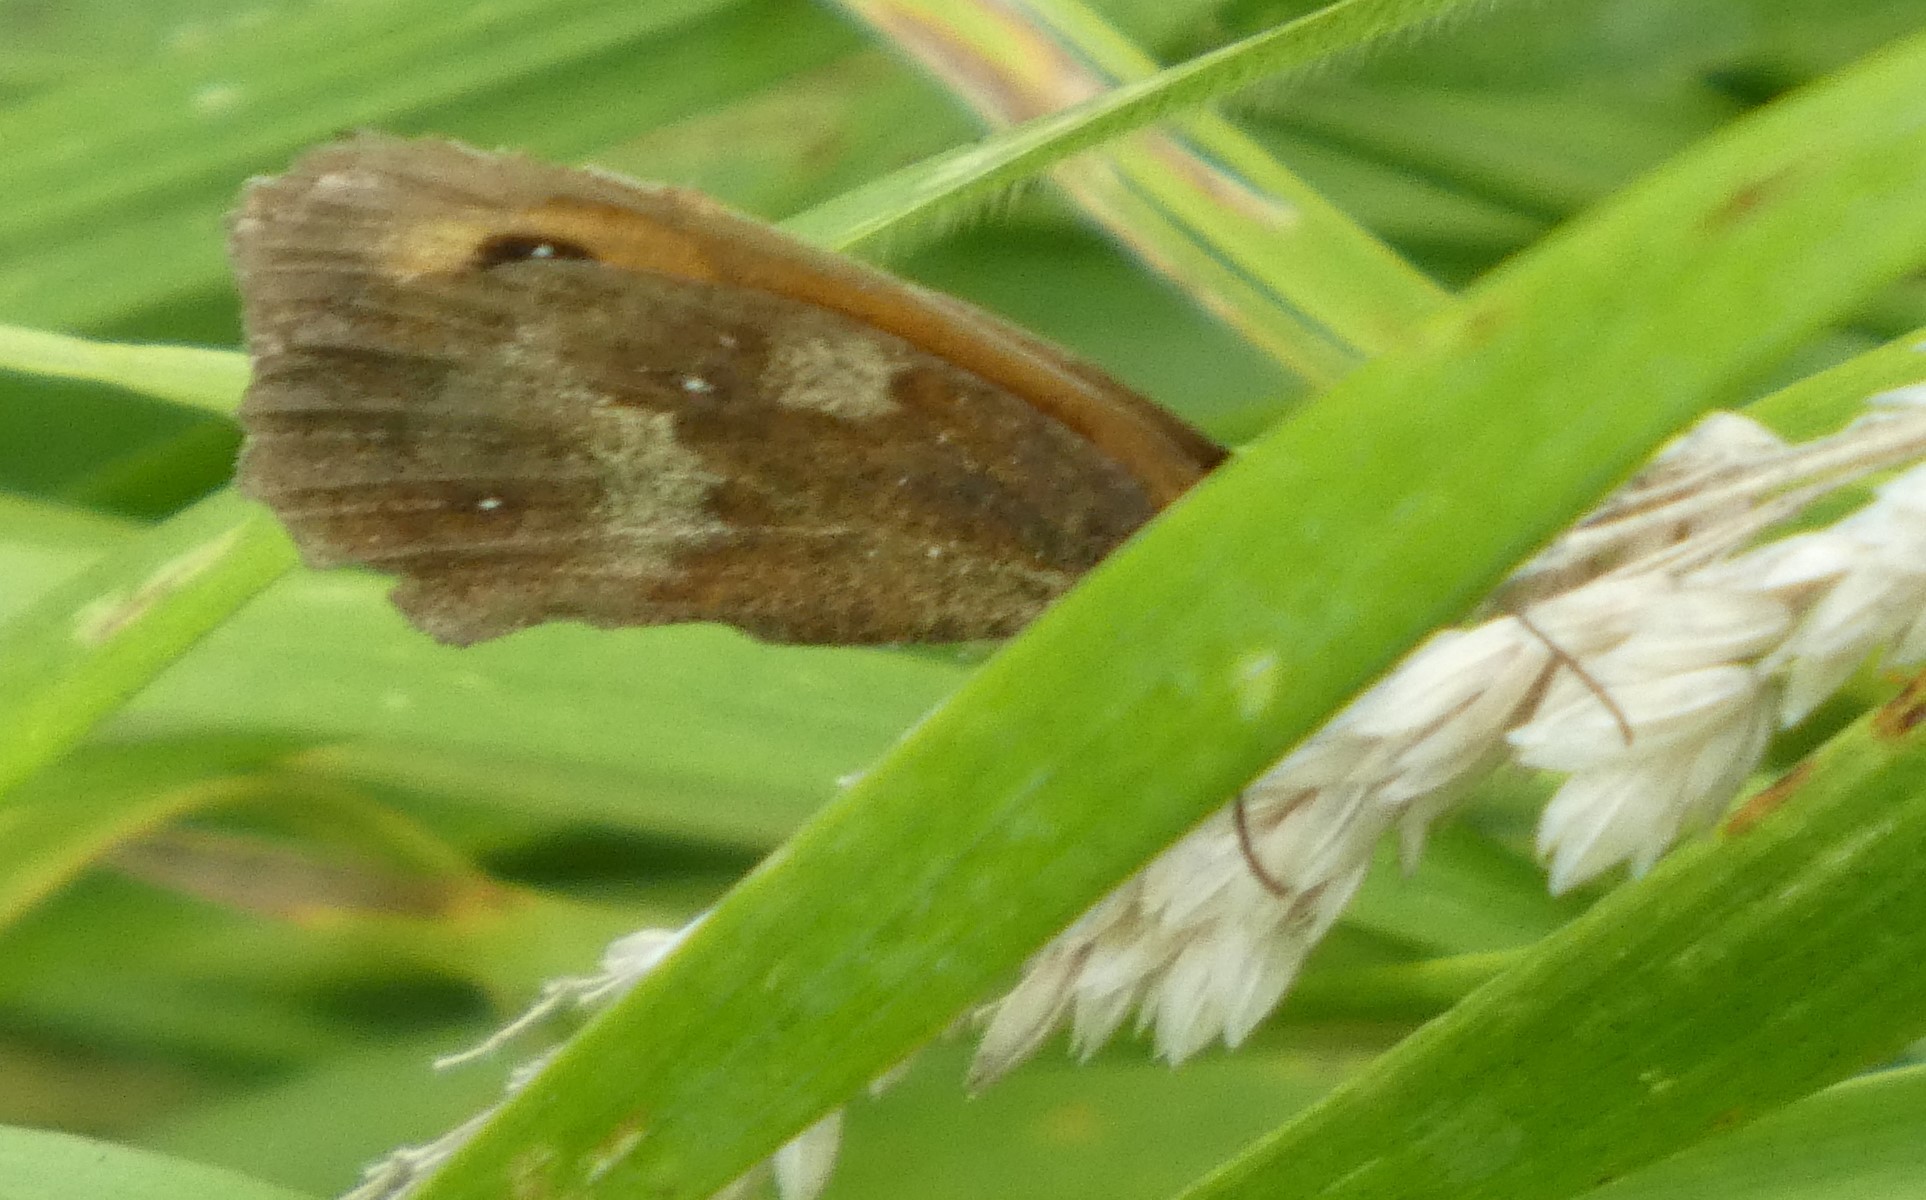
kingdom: Animalia
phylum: Arthropoda
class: Insecta
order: Lepidoptera
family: Nymphalidae
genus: Pyronia
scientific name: Pyronia tithonus
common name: Gatekeeper
